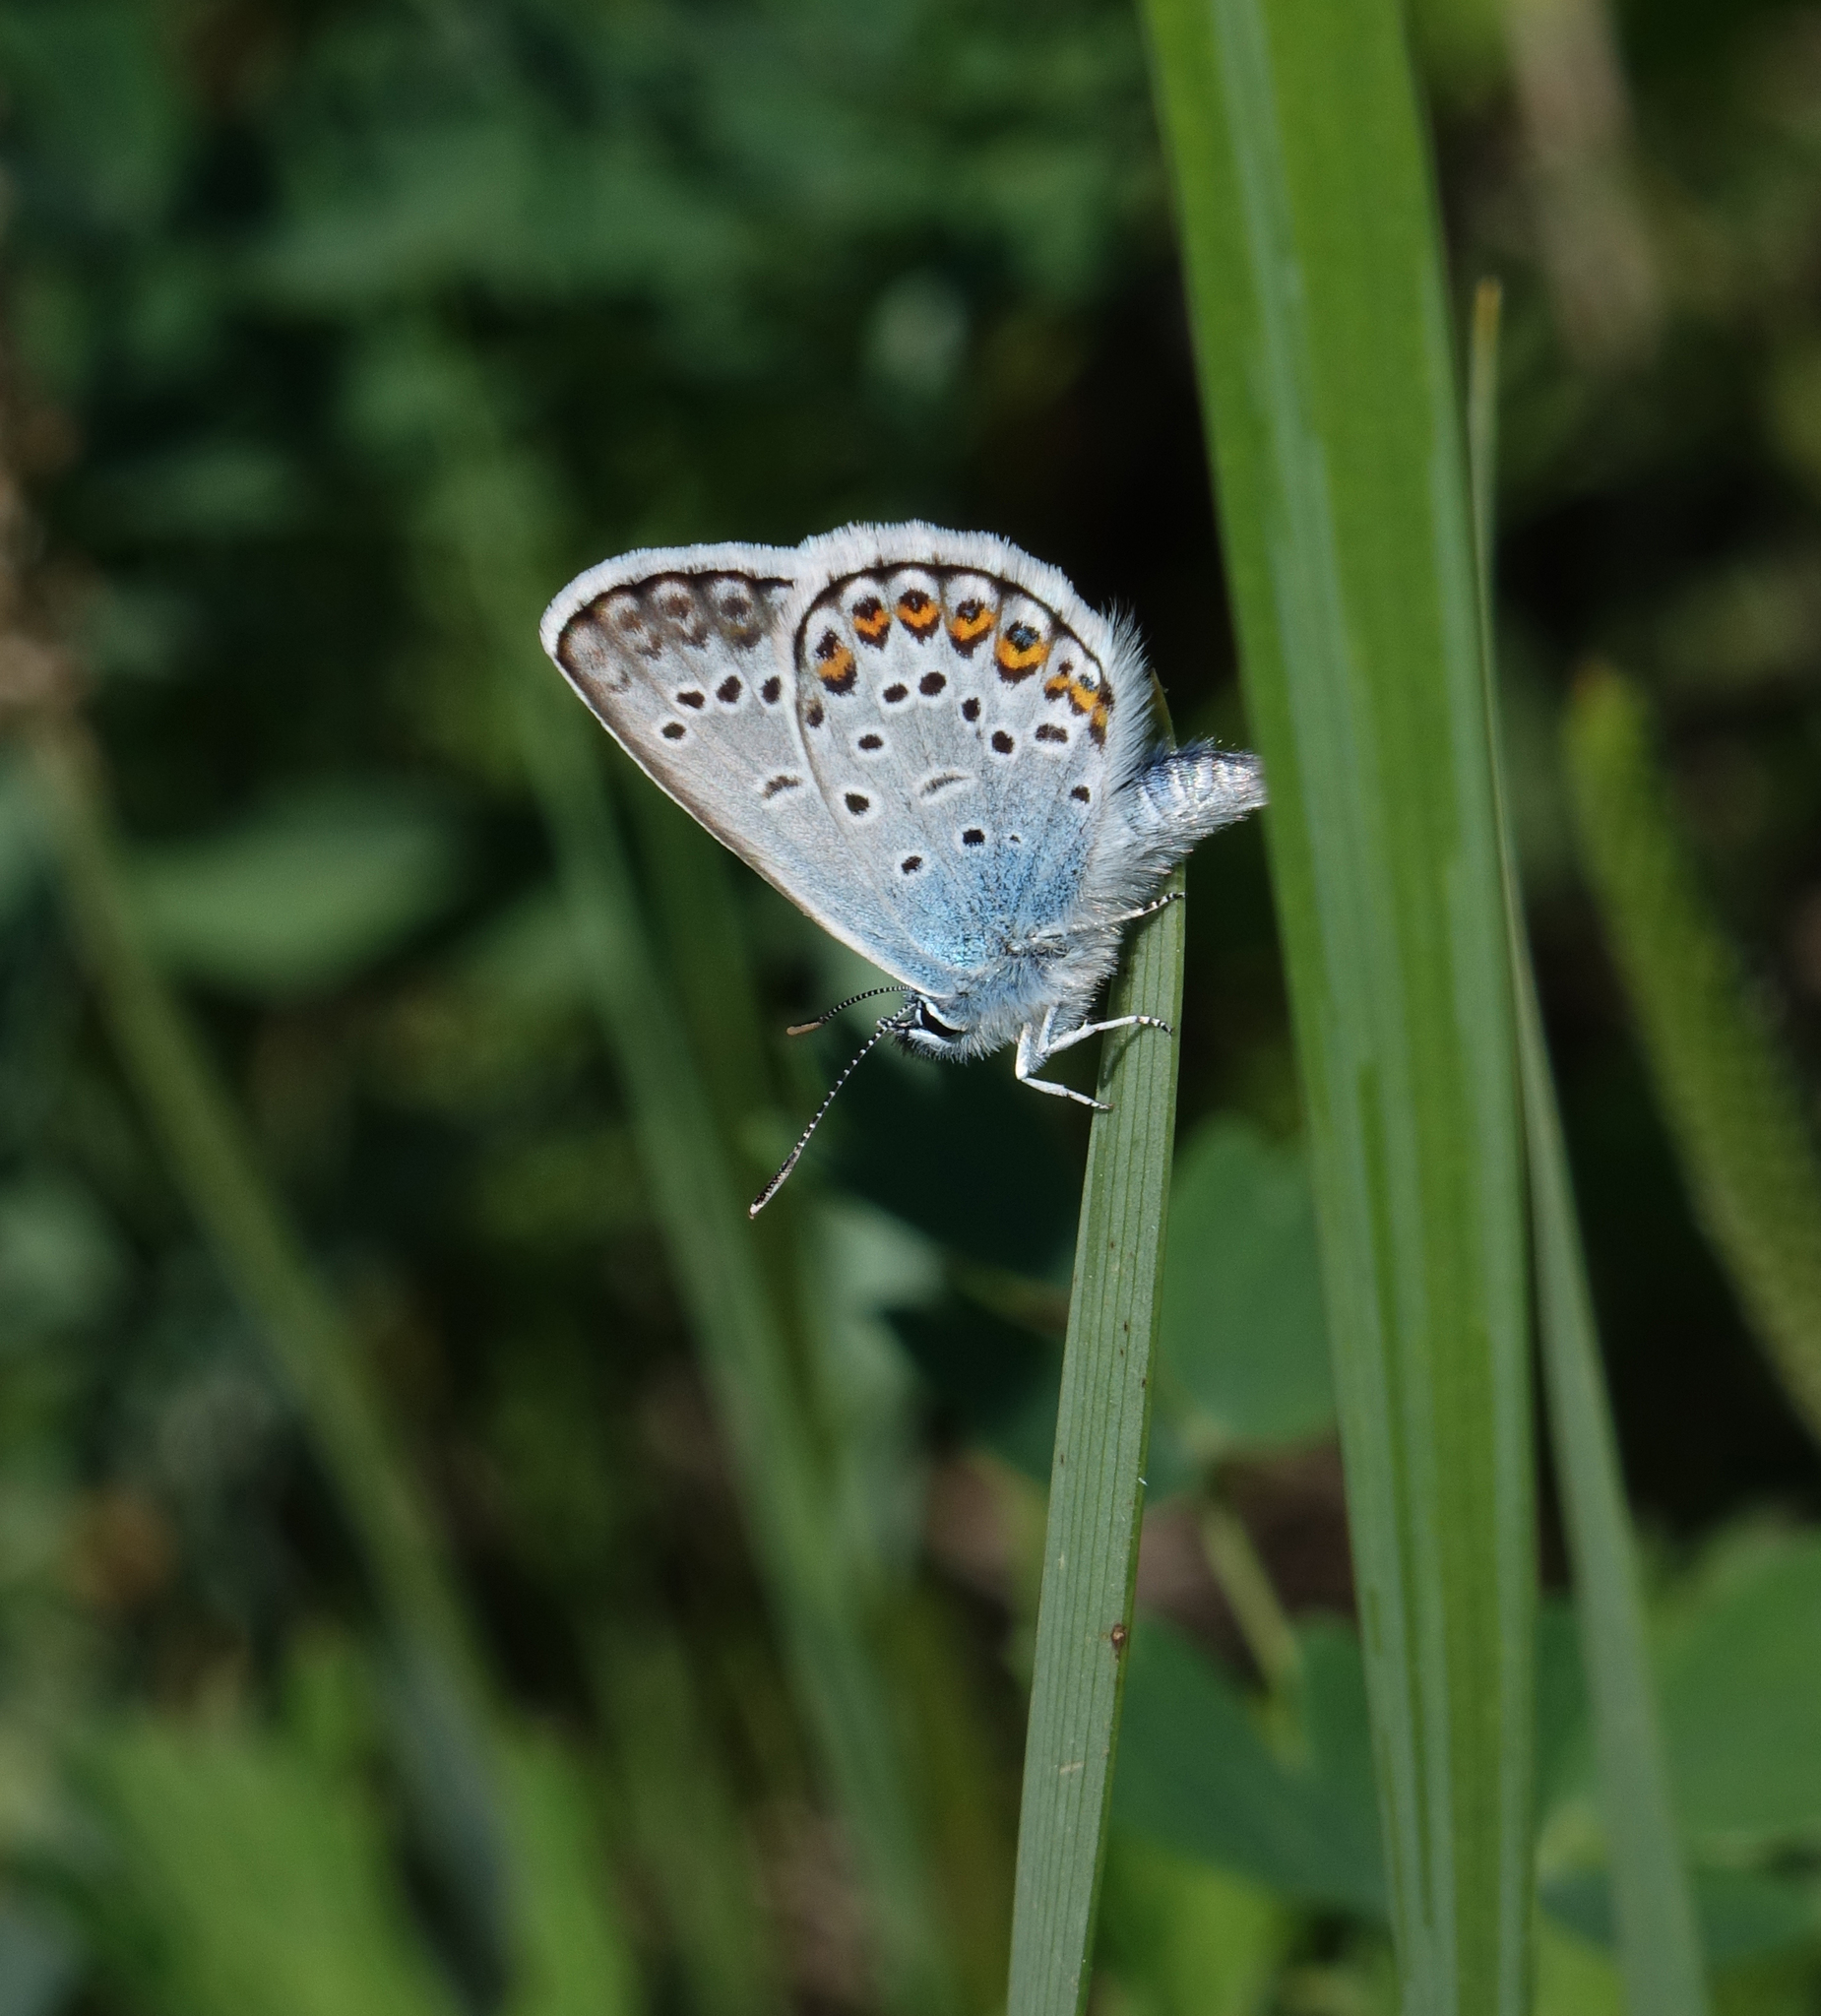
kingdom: Animalia
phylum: Arthropoda
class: Insecta
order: Lepidoptera
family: Lycaenidae
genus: Plebejus
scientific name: Plebejus argus
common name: Silver-studded blue
